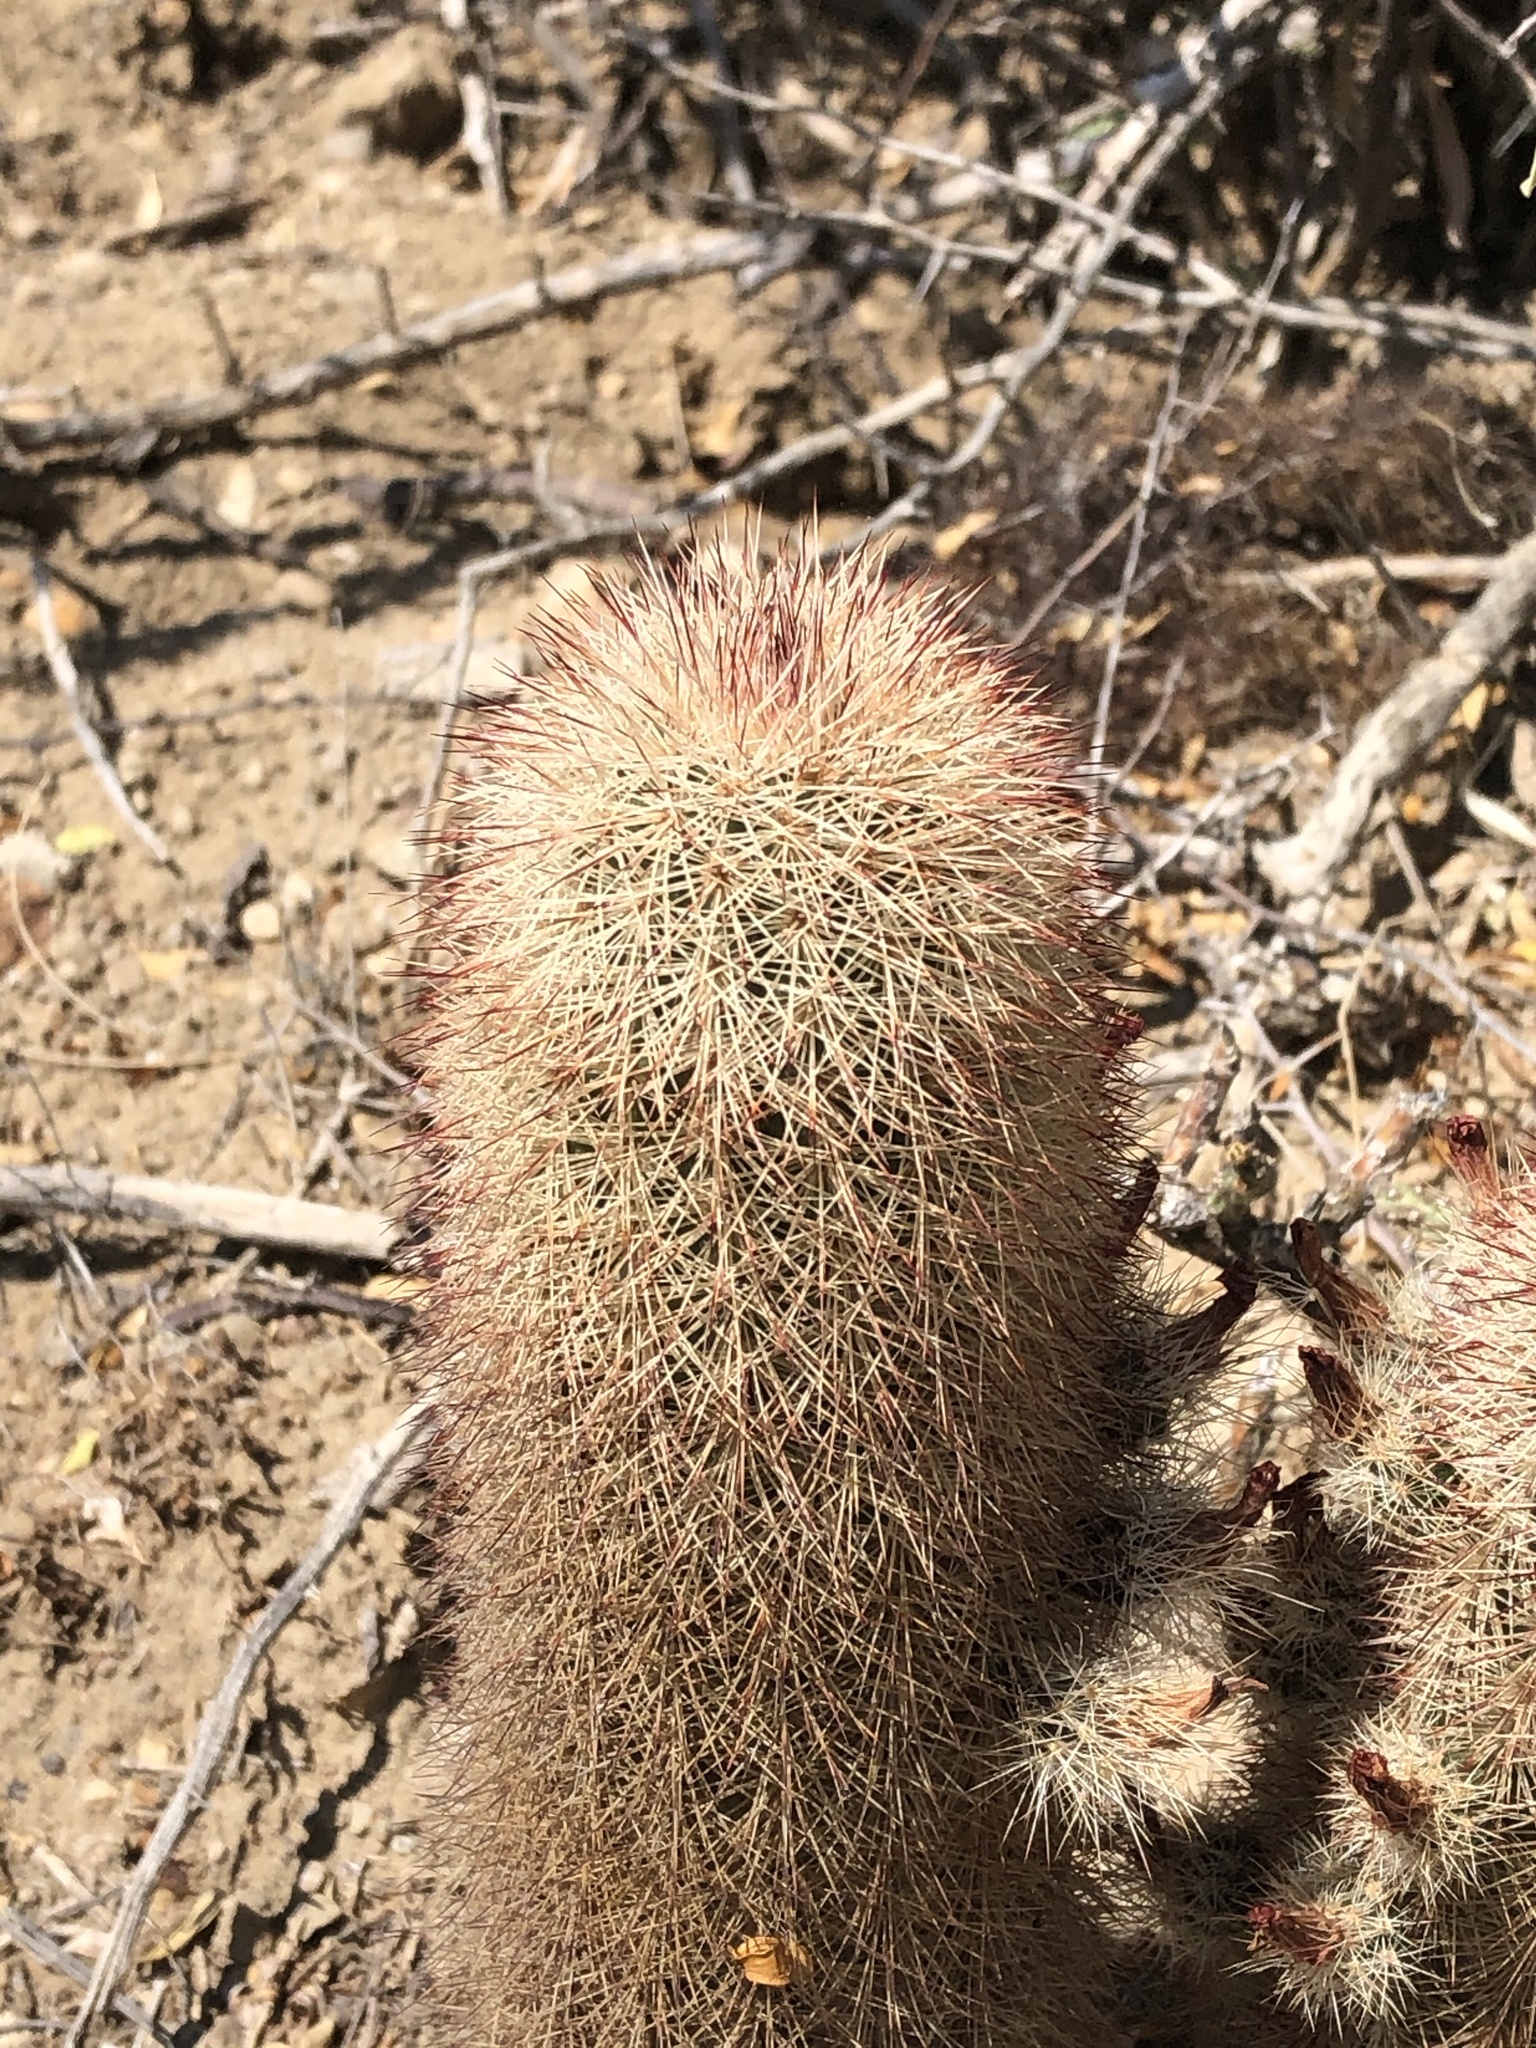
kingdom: Plantae
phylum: Tracheophyta
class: Magnoliopsida
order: Caryophyllales
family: Cactaceae
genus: Echinocereus
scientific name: Echinocereus russanthus
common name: Brownspine hedgehog cactus
